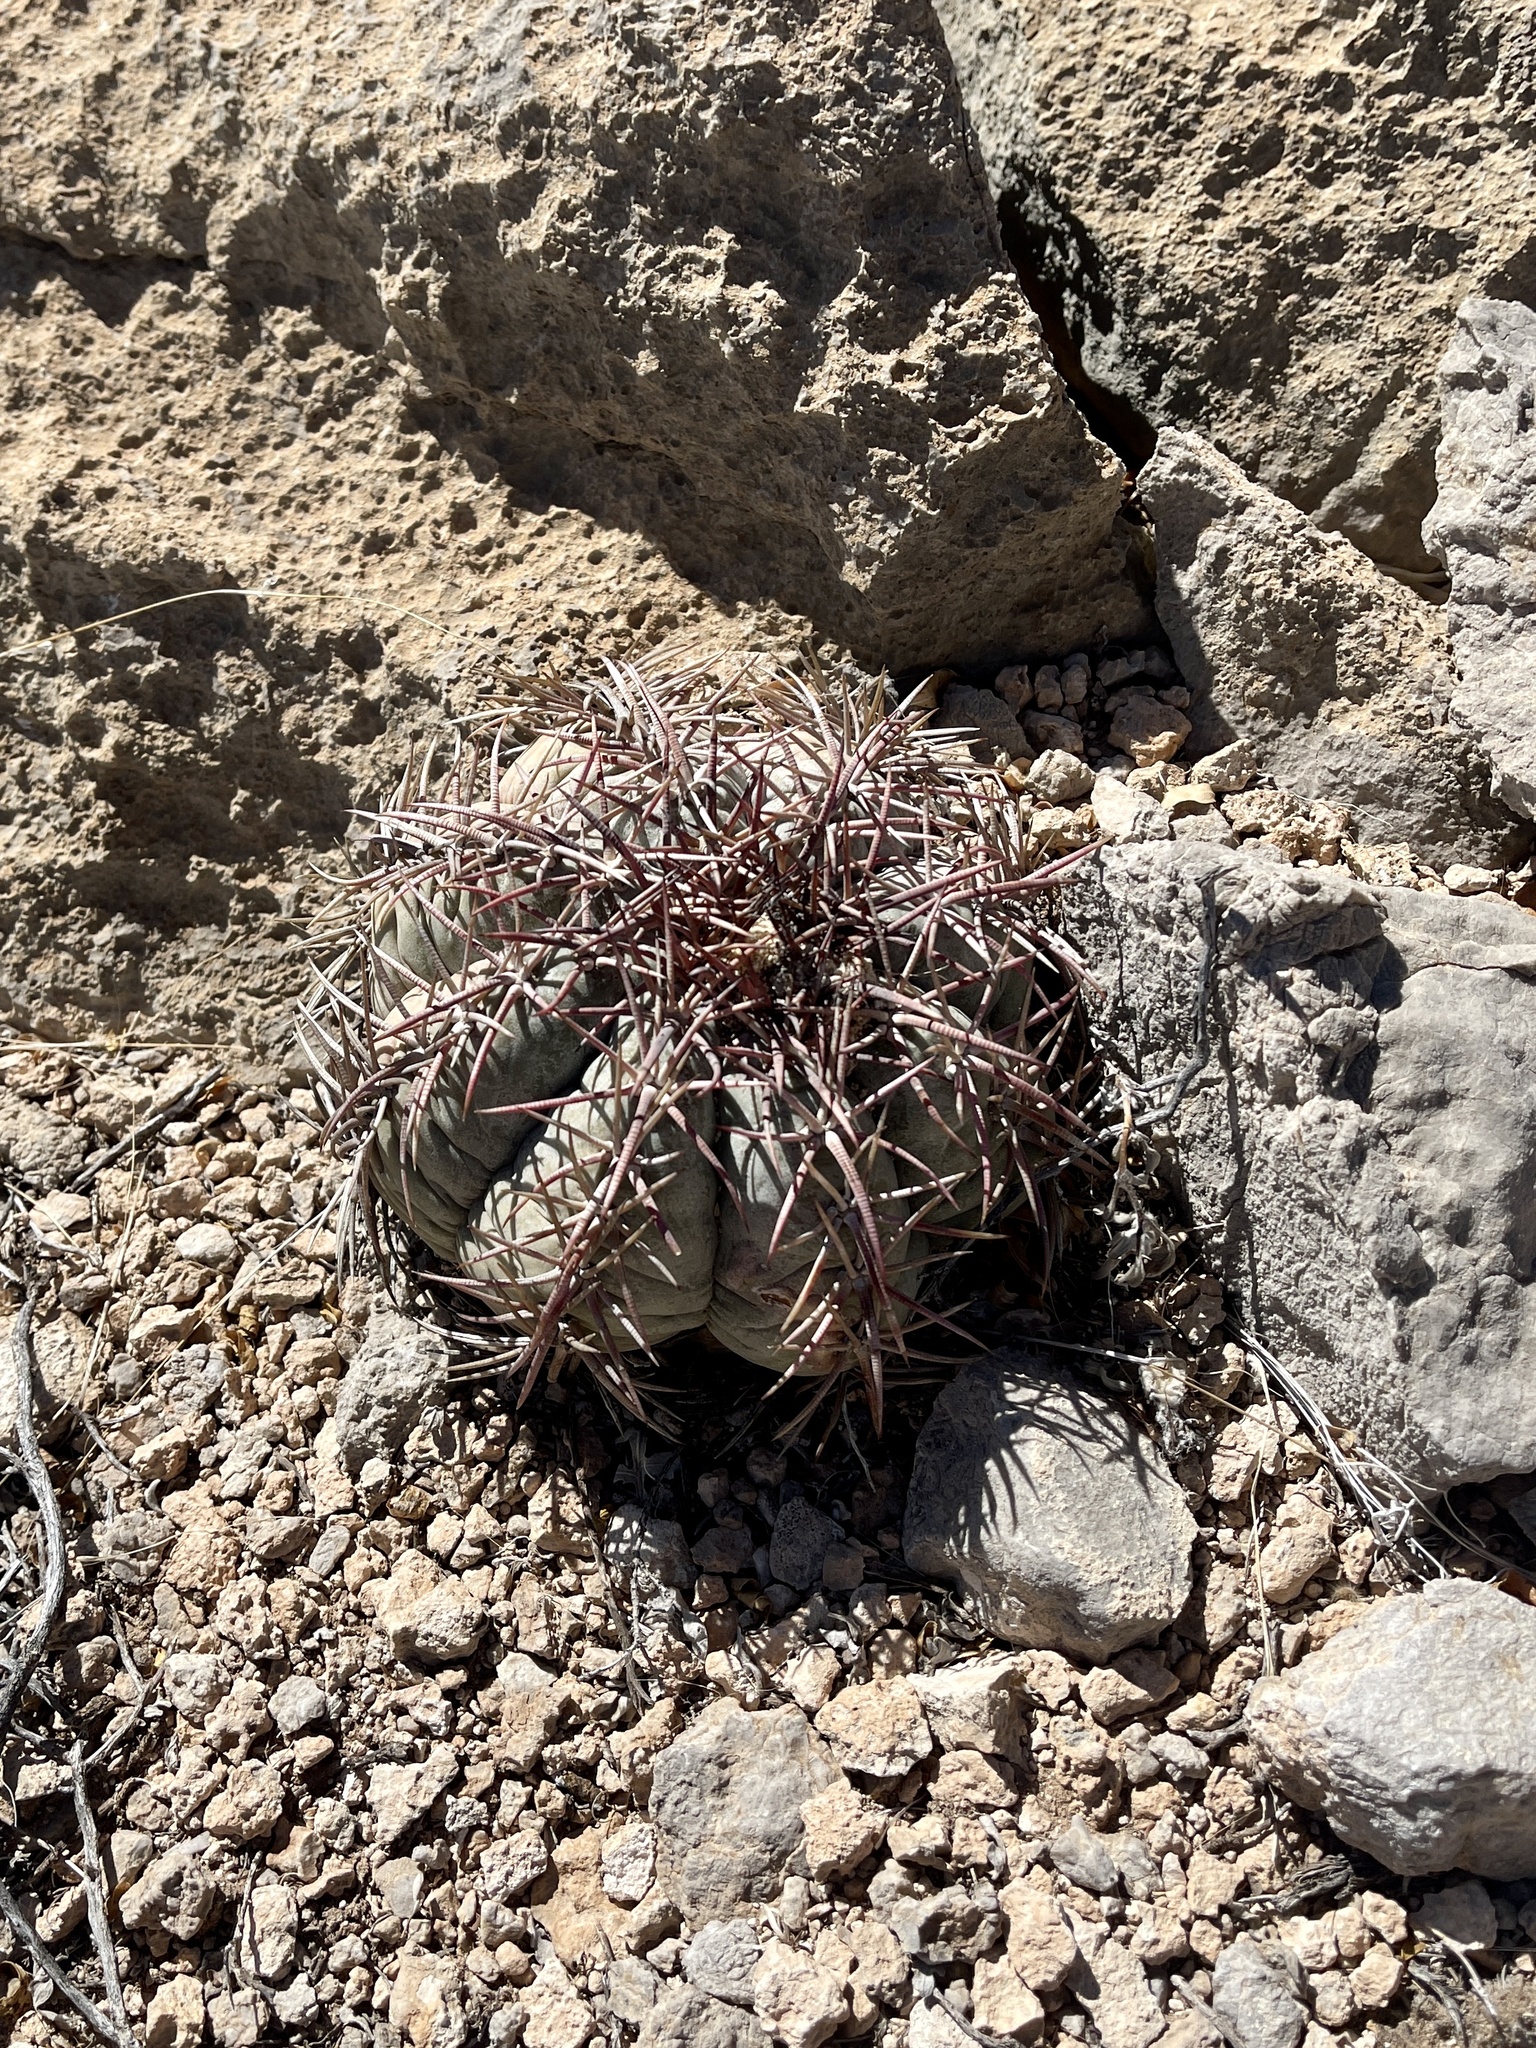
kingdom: Plantae
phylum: Tracheophyta
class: Magnoliopsida
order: Caryophyllales
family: Cactaceae
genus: Echinocactus
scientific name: Echinocactus horizonthalonius
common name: Devilshead
